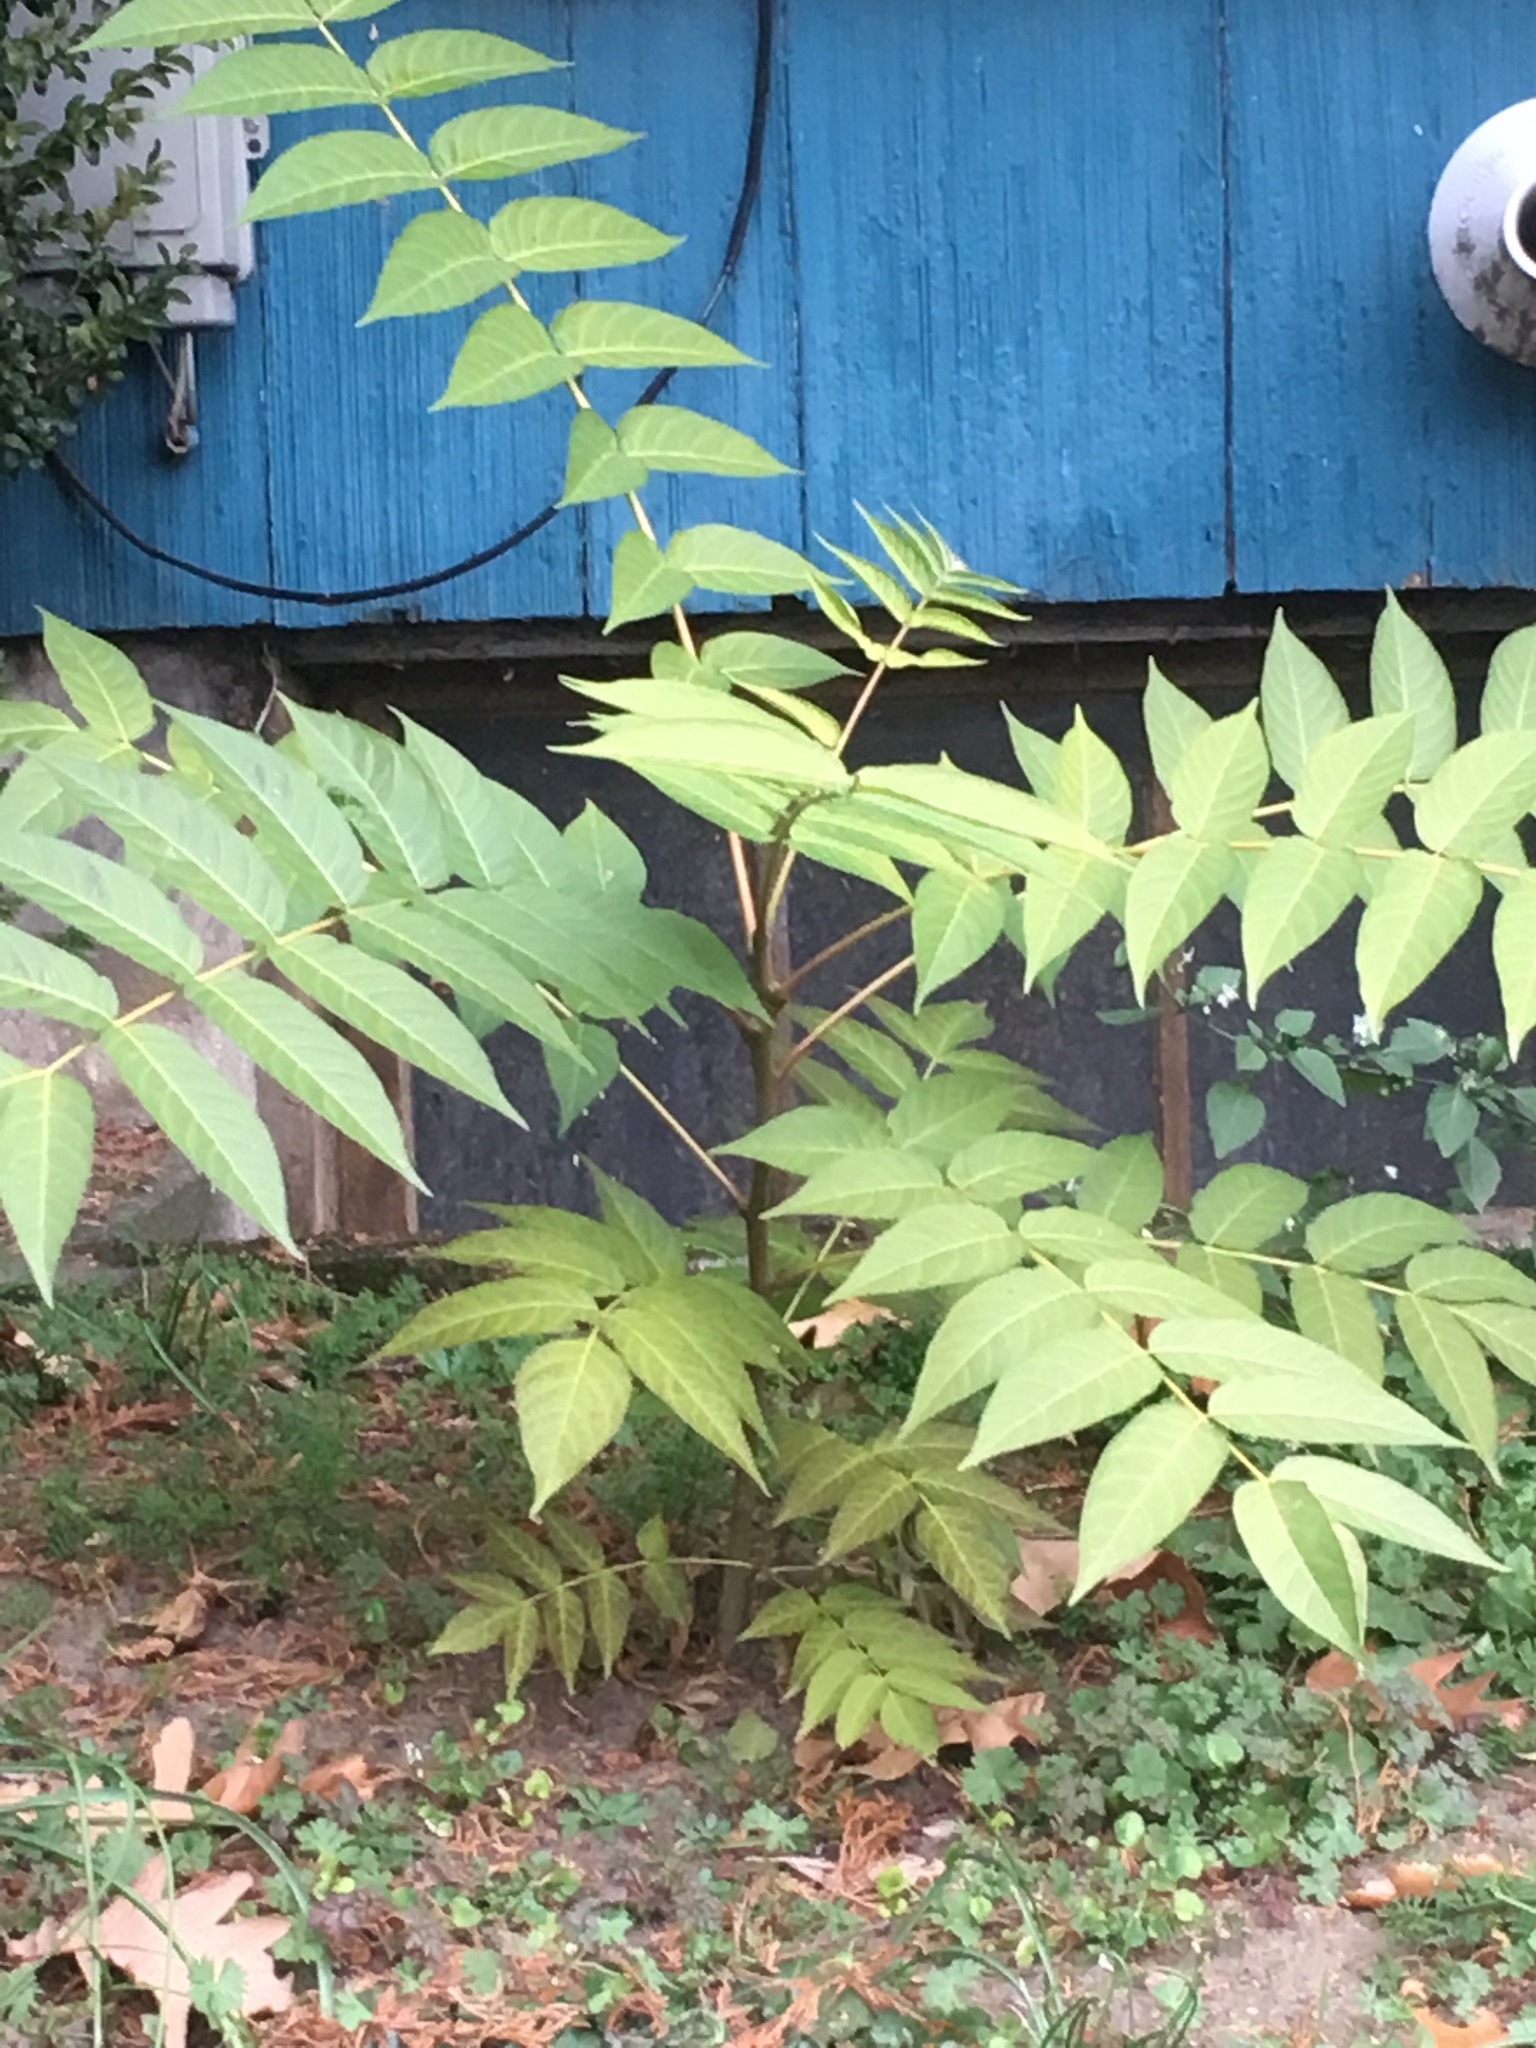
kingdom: Plantae
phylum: Tracheophyta
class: Magnoliopsida
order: Sapindales
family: Simaroubaceae
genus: Ailanthus
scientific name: Ailanthus altissima
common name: Tree-of-heaven
